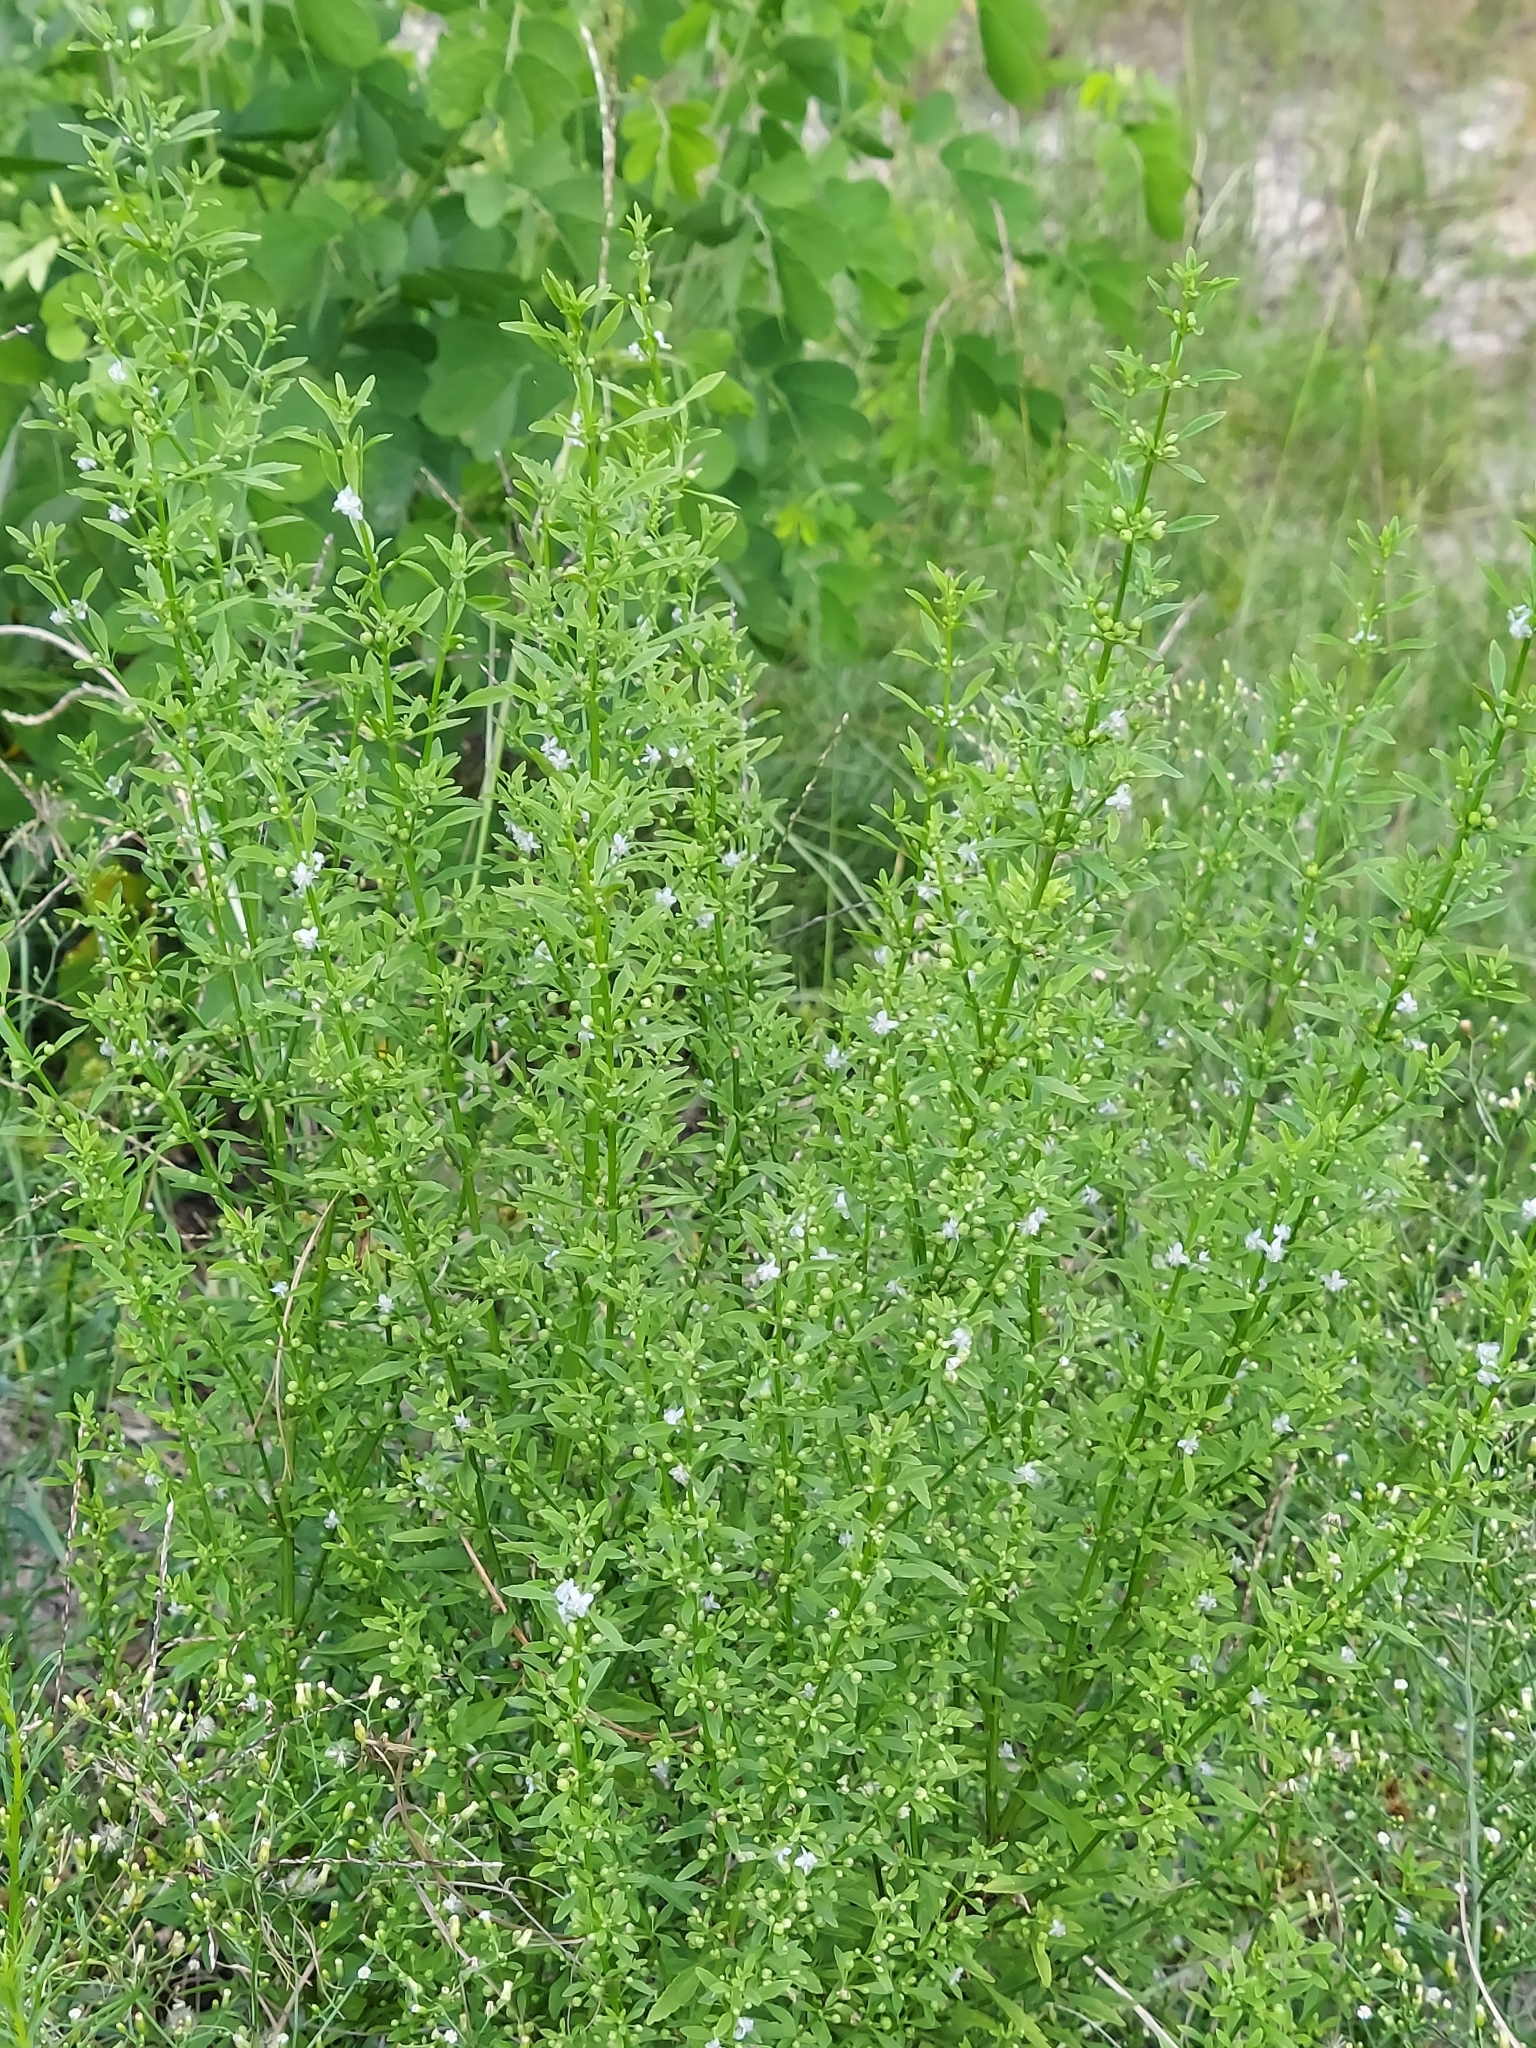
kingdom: Plantae
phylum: Tracheophyta
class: Magnoliopsida
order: Lamiales
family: Plantaginaceae
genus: Scoparia
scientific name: Scoparia dulcis
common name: Scoparia-weed
